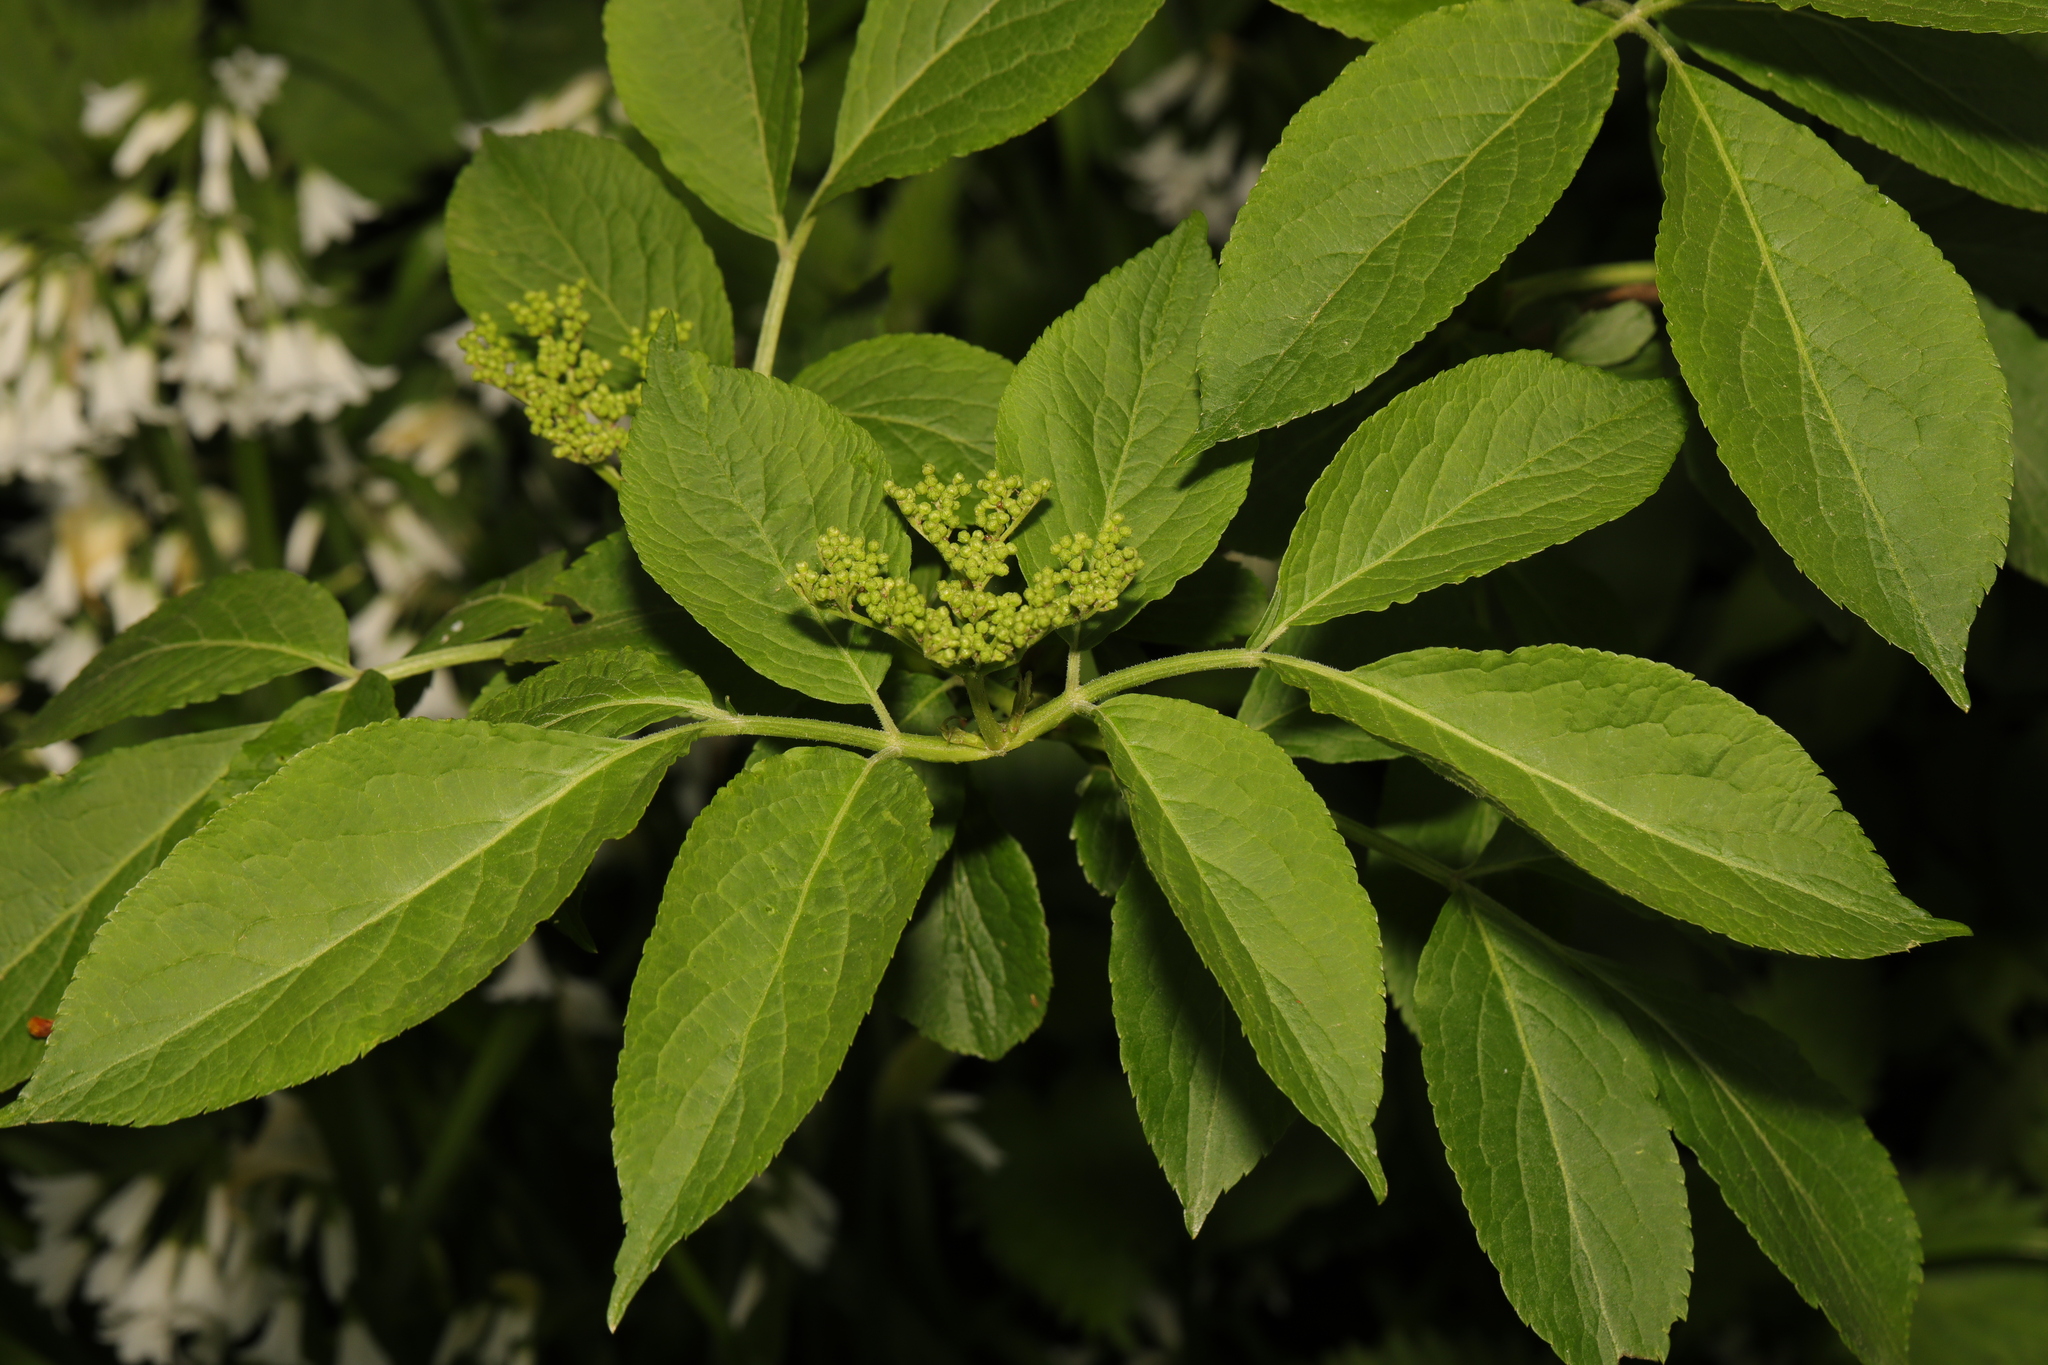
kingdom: Plantae
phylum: Tracheophyta
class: Magnoliopsida
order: Dipsacales
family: Viburnaceae
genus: Sambucus
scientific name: Sambucus nigra
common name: Elder
